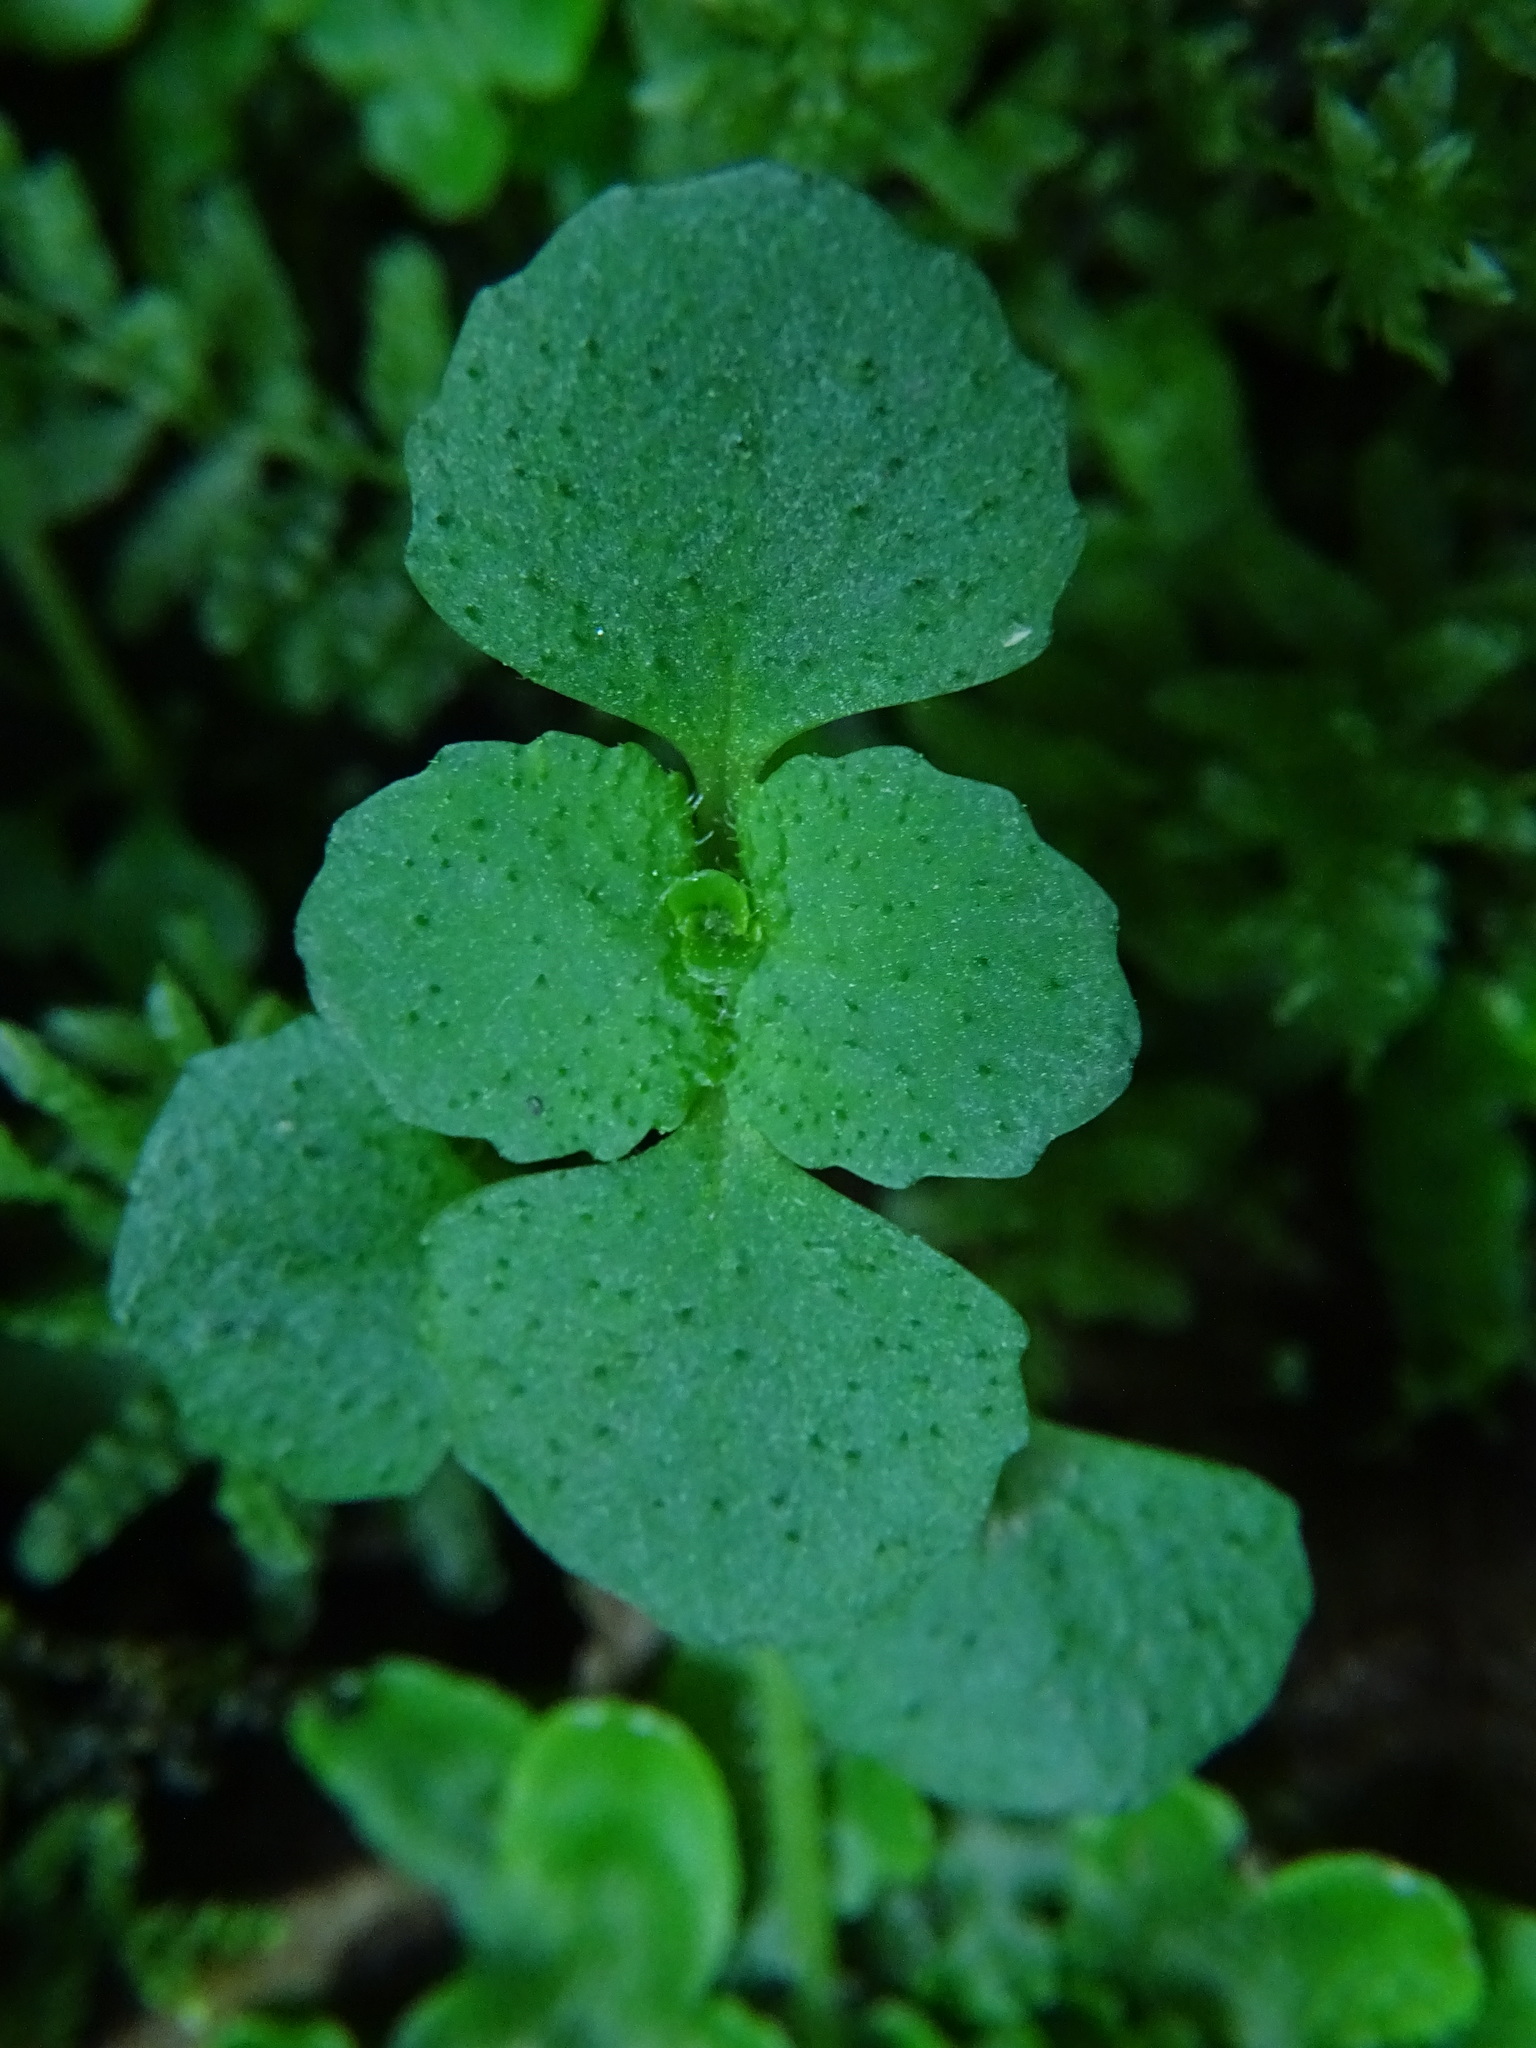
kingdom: Plantae
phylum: Tracheophyta
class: Magnoliopsida
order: Saxifragales
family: Saxifragaceae
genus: Chrysosplenium
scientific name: Chrysosplenium oppositifolium
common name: Opposite-leaved golden-saxifrage
